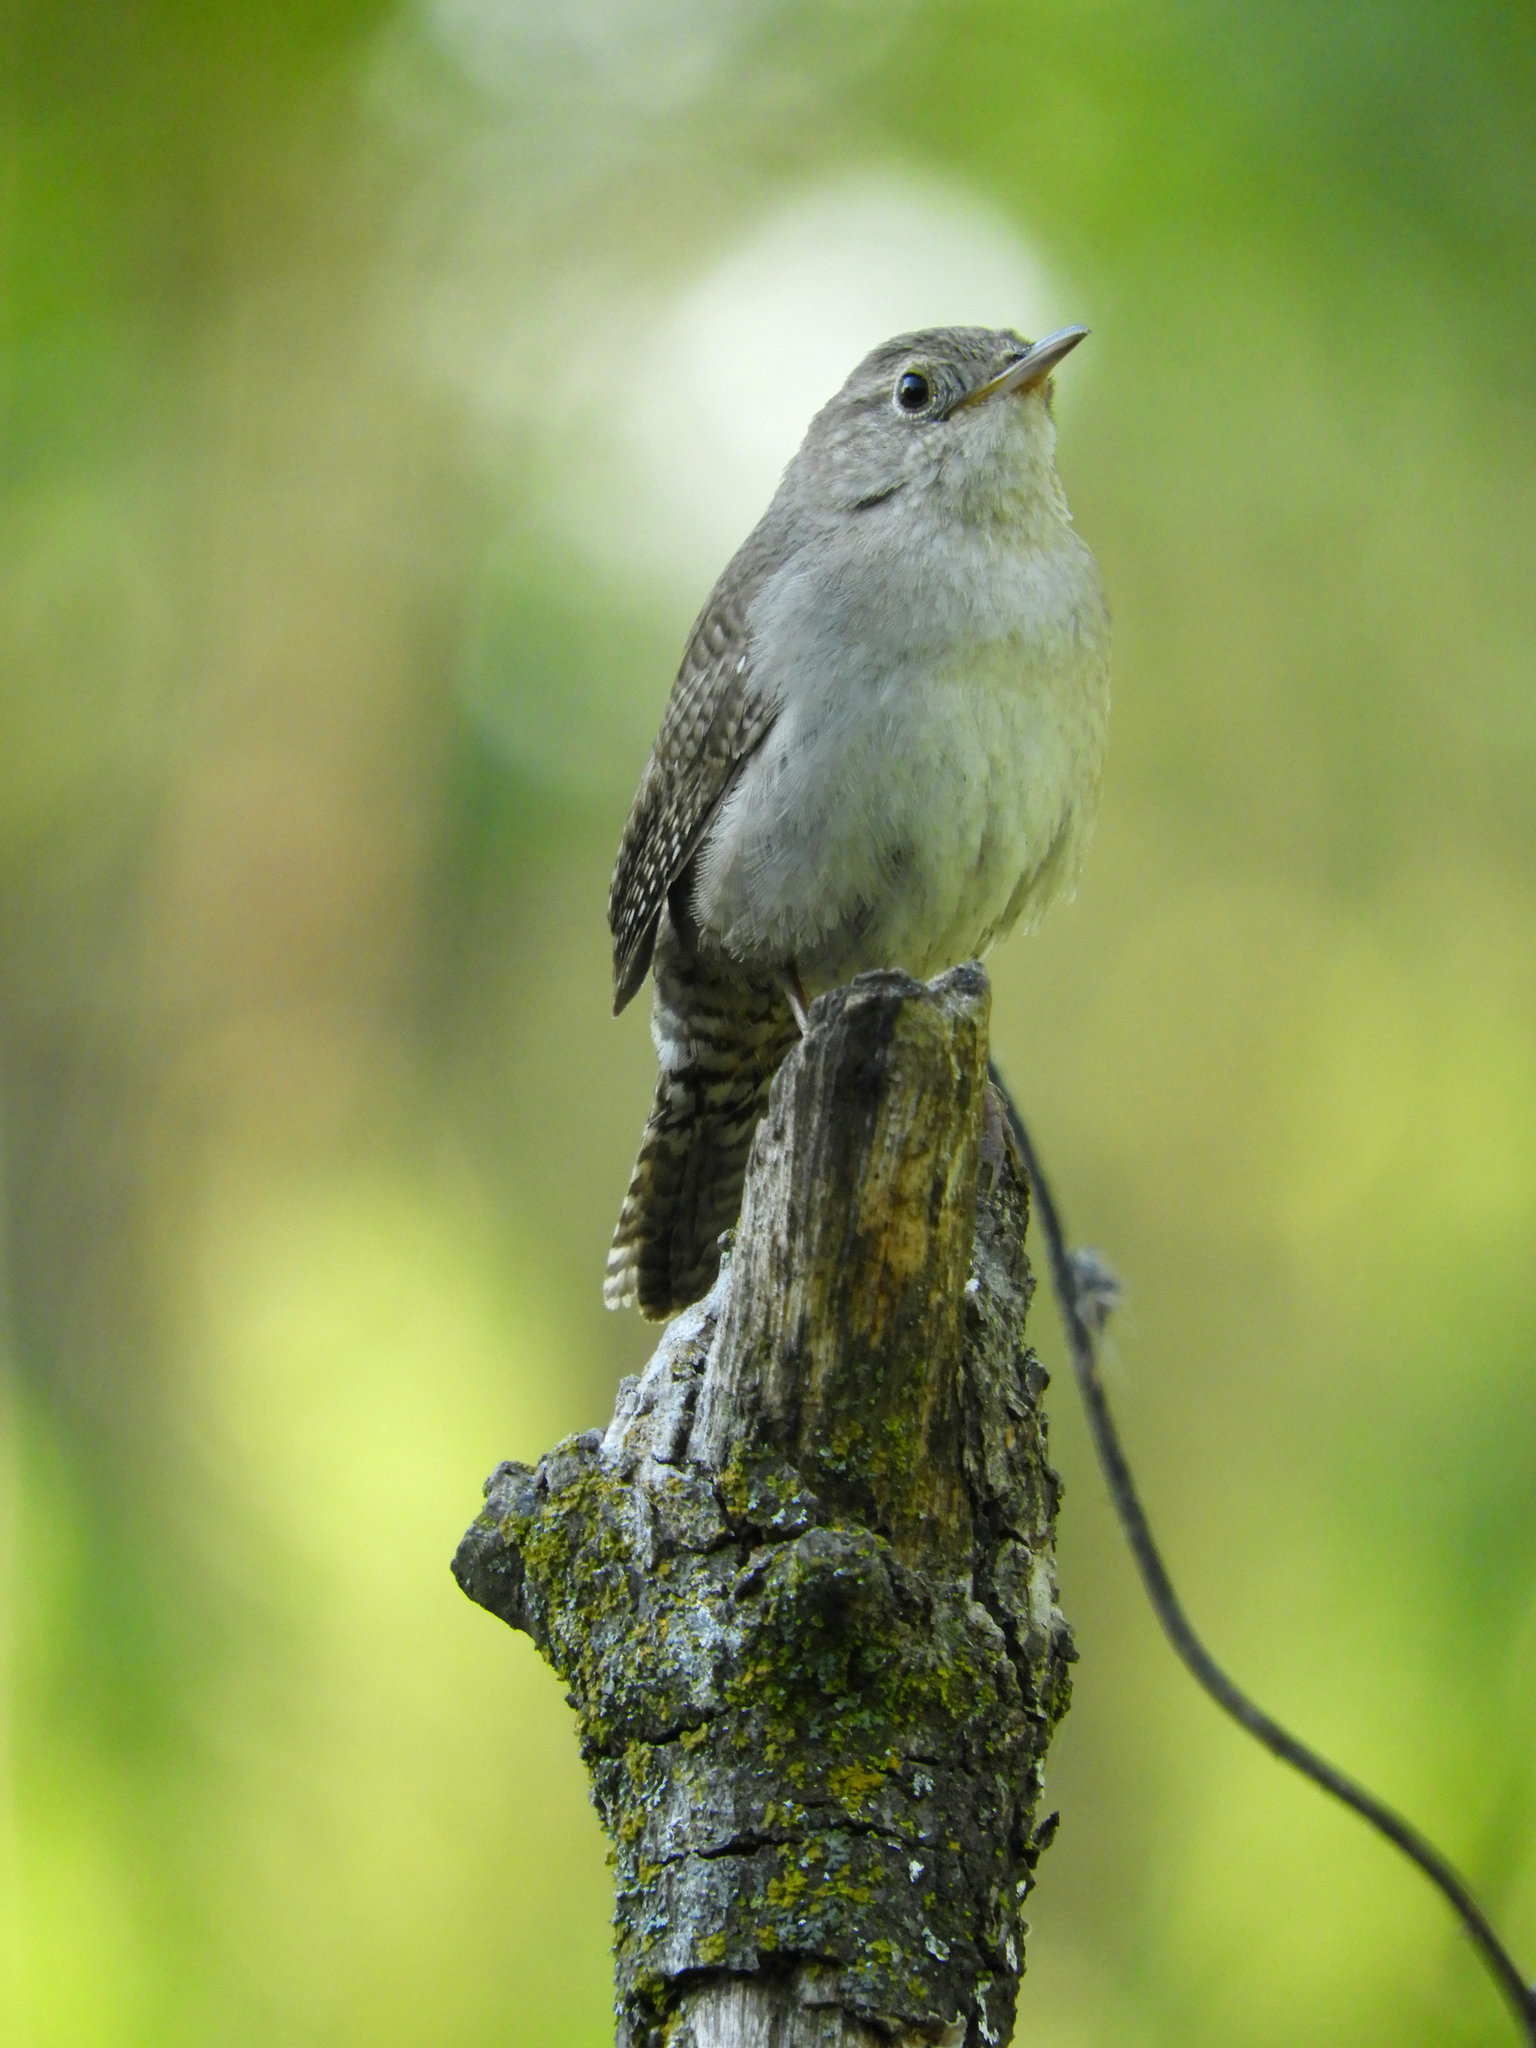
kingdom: Animalia
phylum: Chordata
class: Aves
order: Passeriformes
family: Troglodytidae
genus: Troglodytes
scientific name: Troglodytes aedon
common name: House wren
